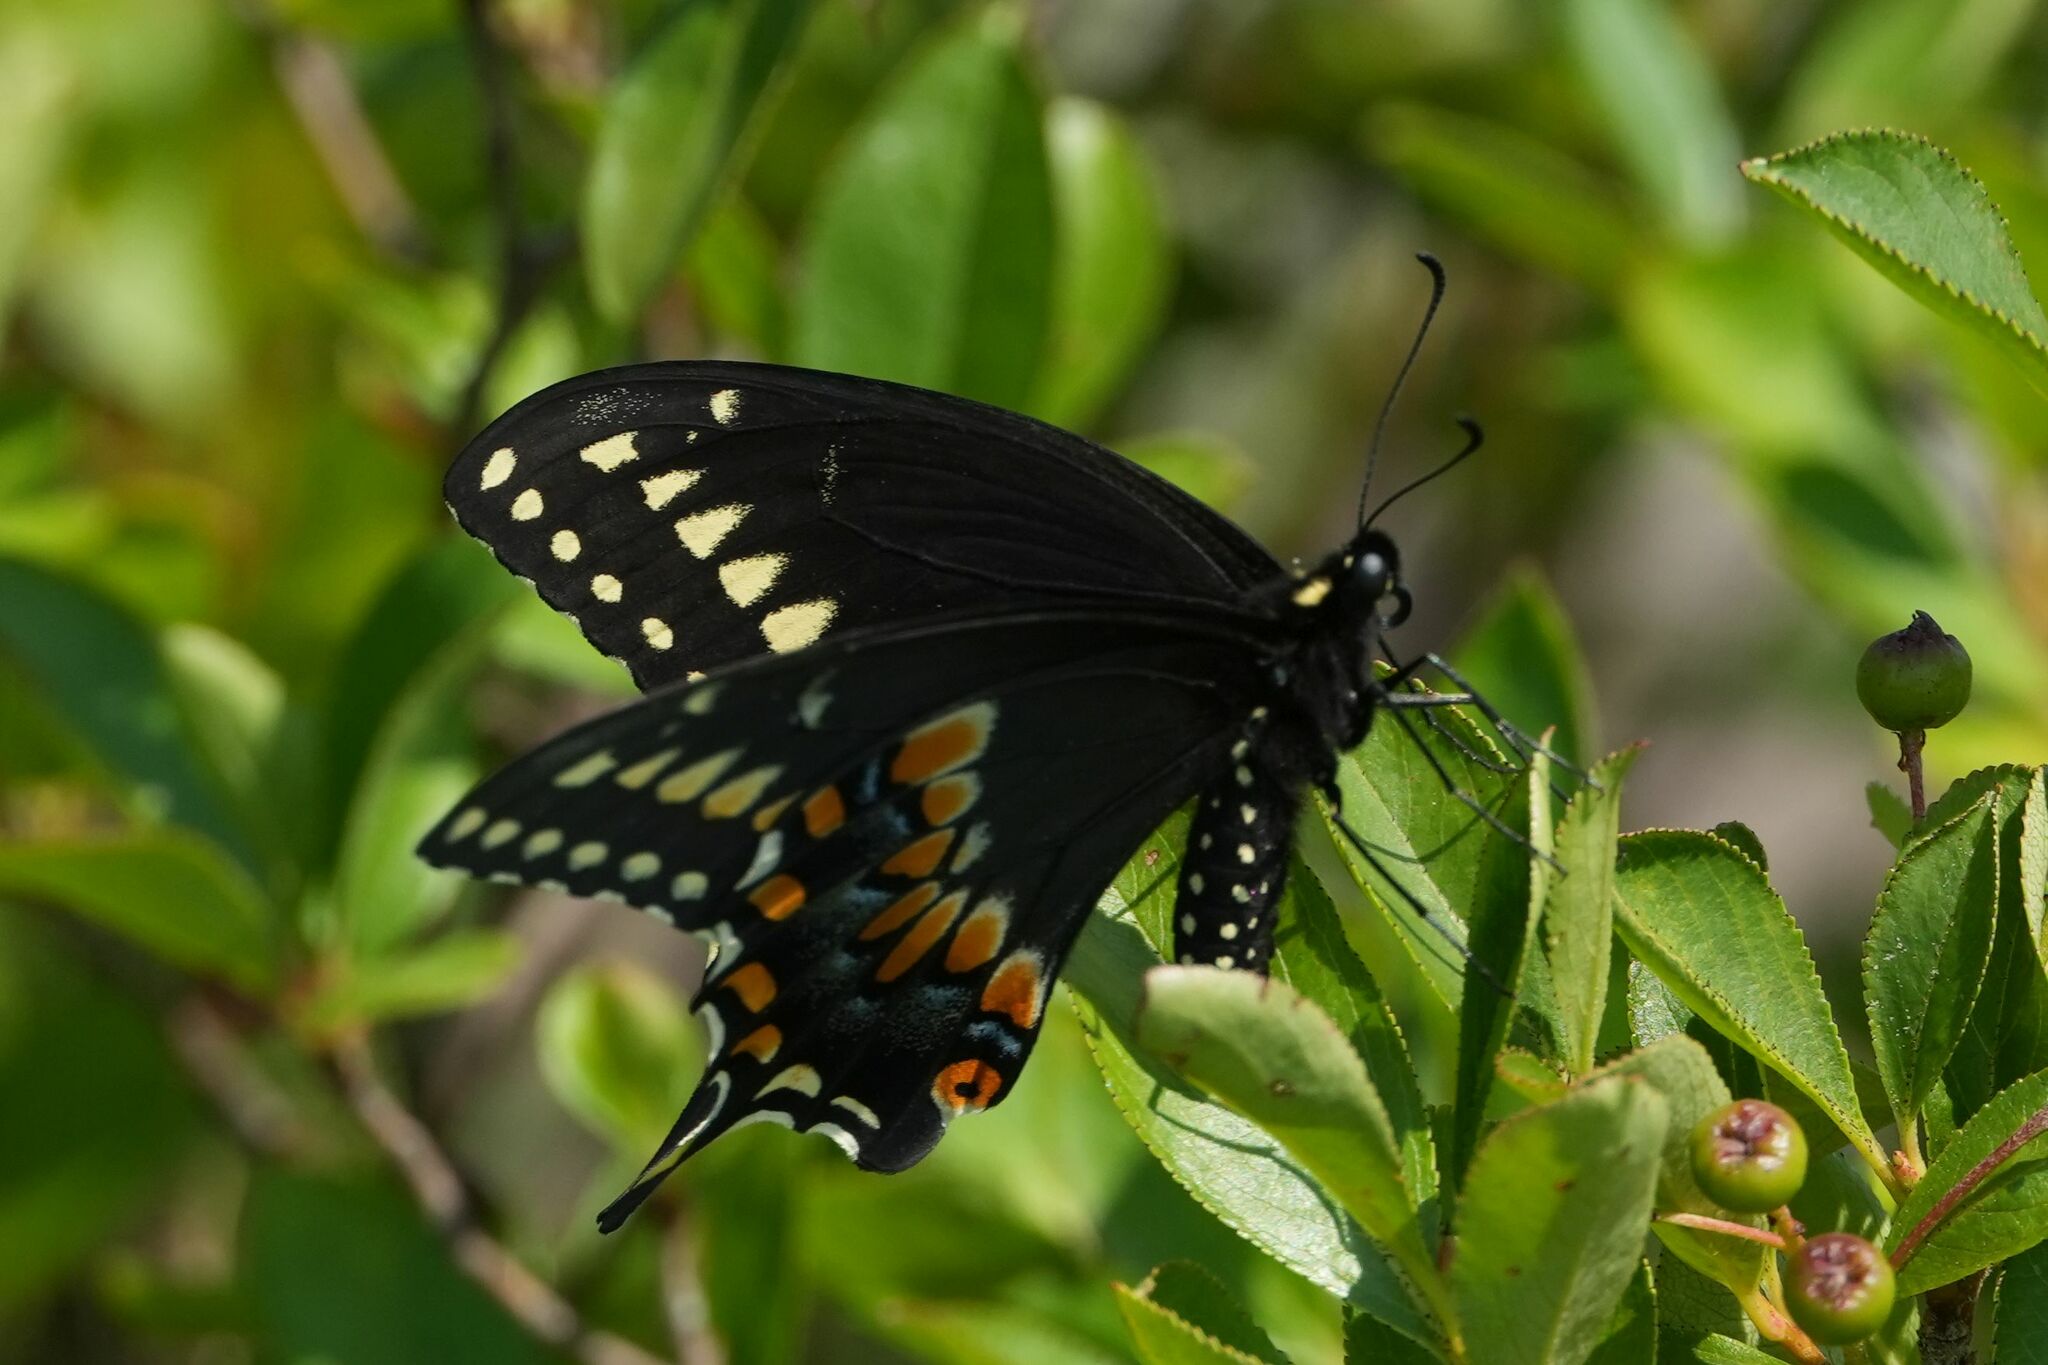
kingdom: Animalia
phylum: Arthropoda
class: Insecta
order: Lepidoptera
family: Papilionidae
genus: Papilio
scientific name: Papilio polyxenes
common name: Black swallowtail
